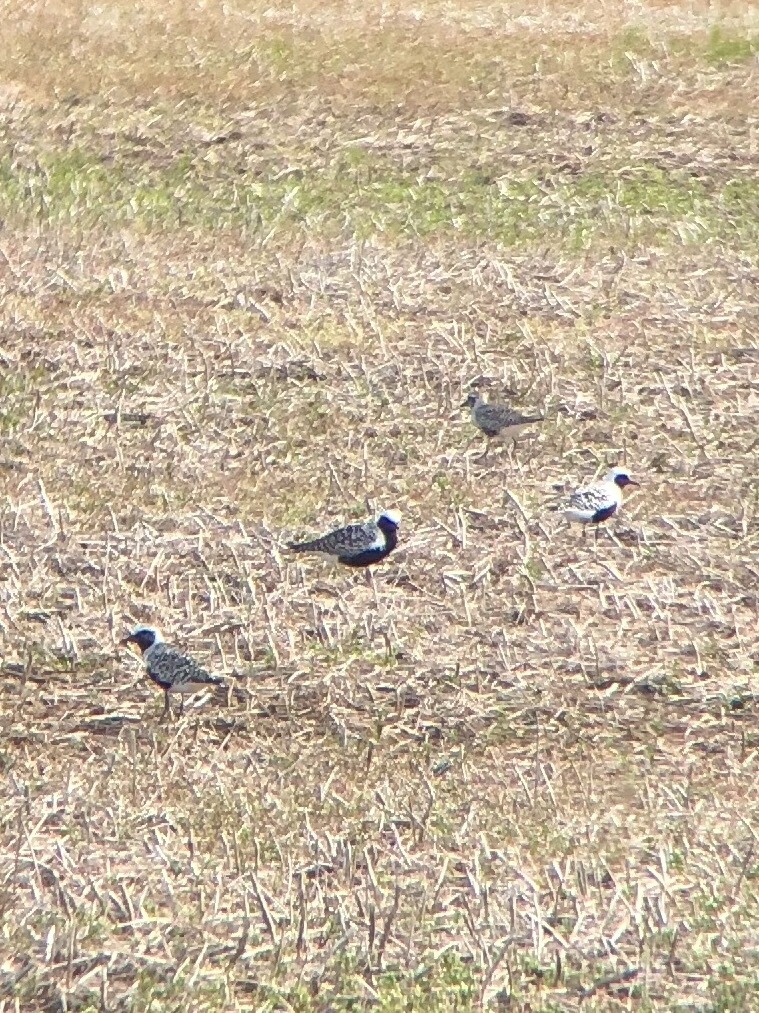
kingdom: Animalia
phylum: Chordata
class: Aves
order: Charadriiformes
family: Charadriidae
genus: Pluvialis
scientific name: Pluvialis squatarola
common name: Grey plover
